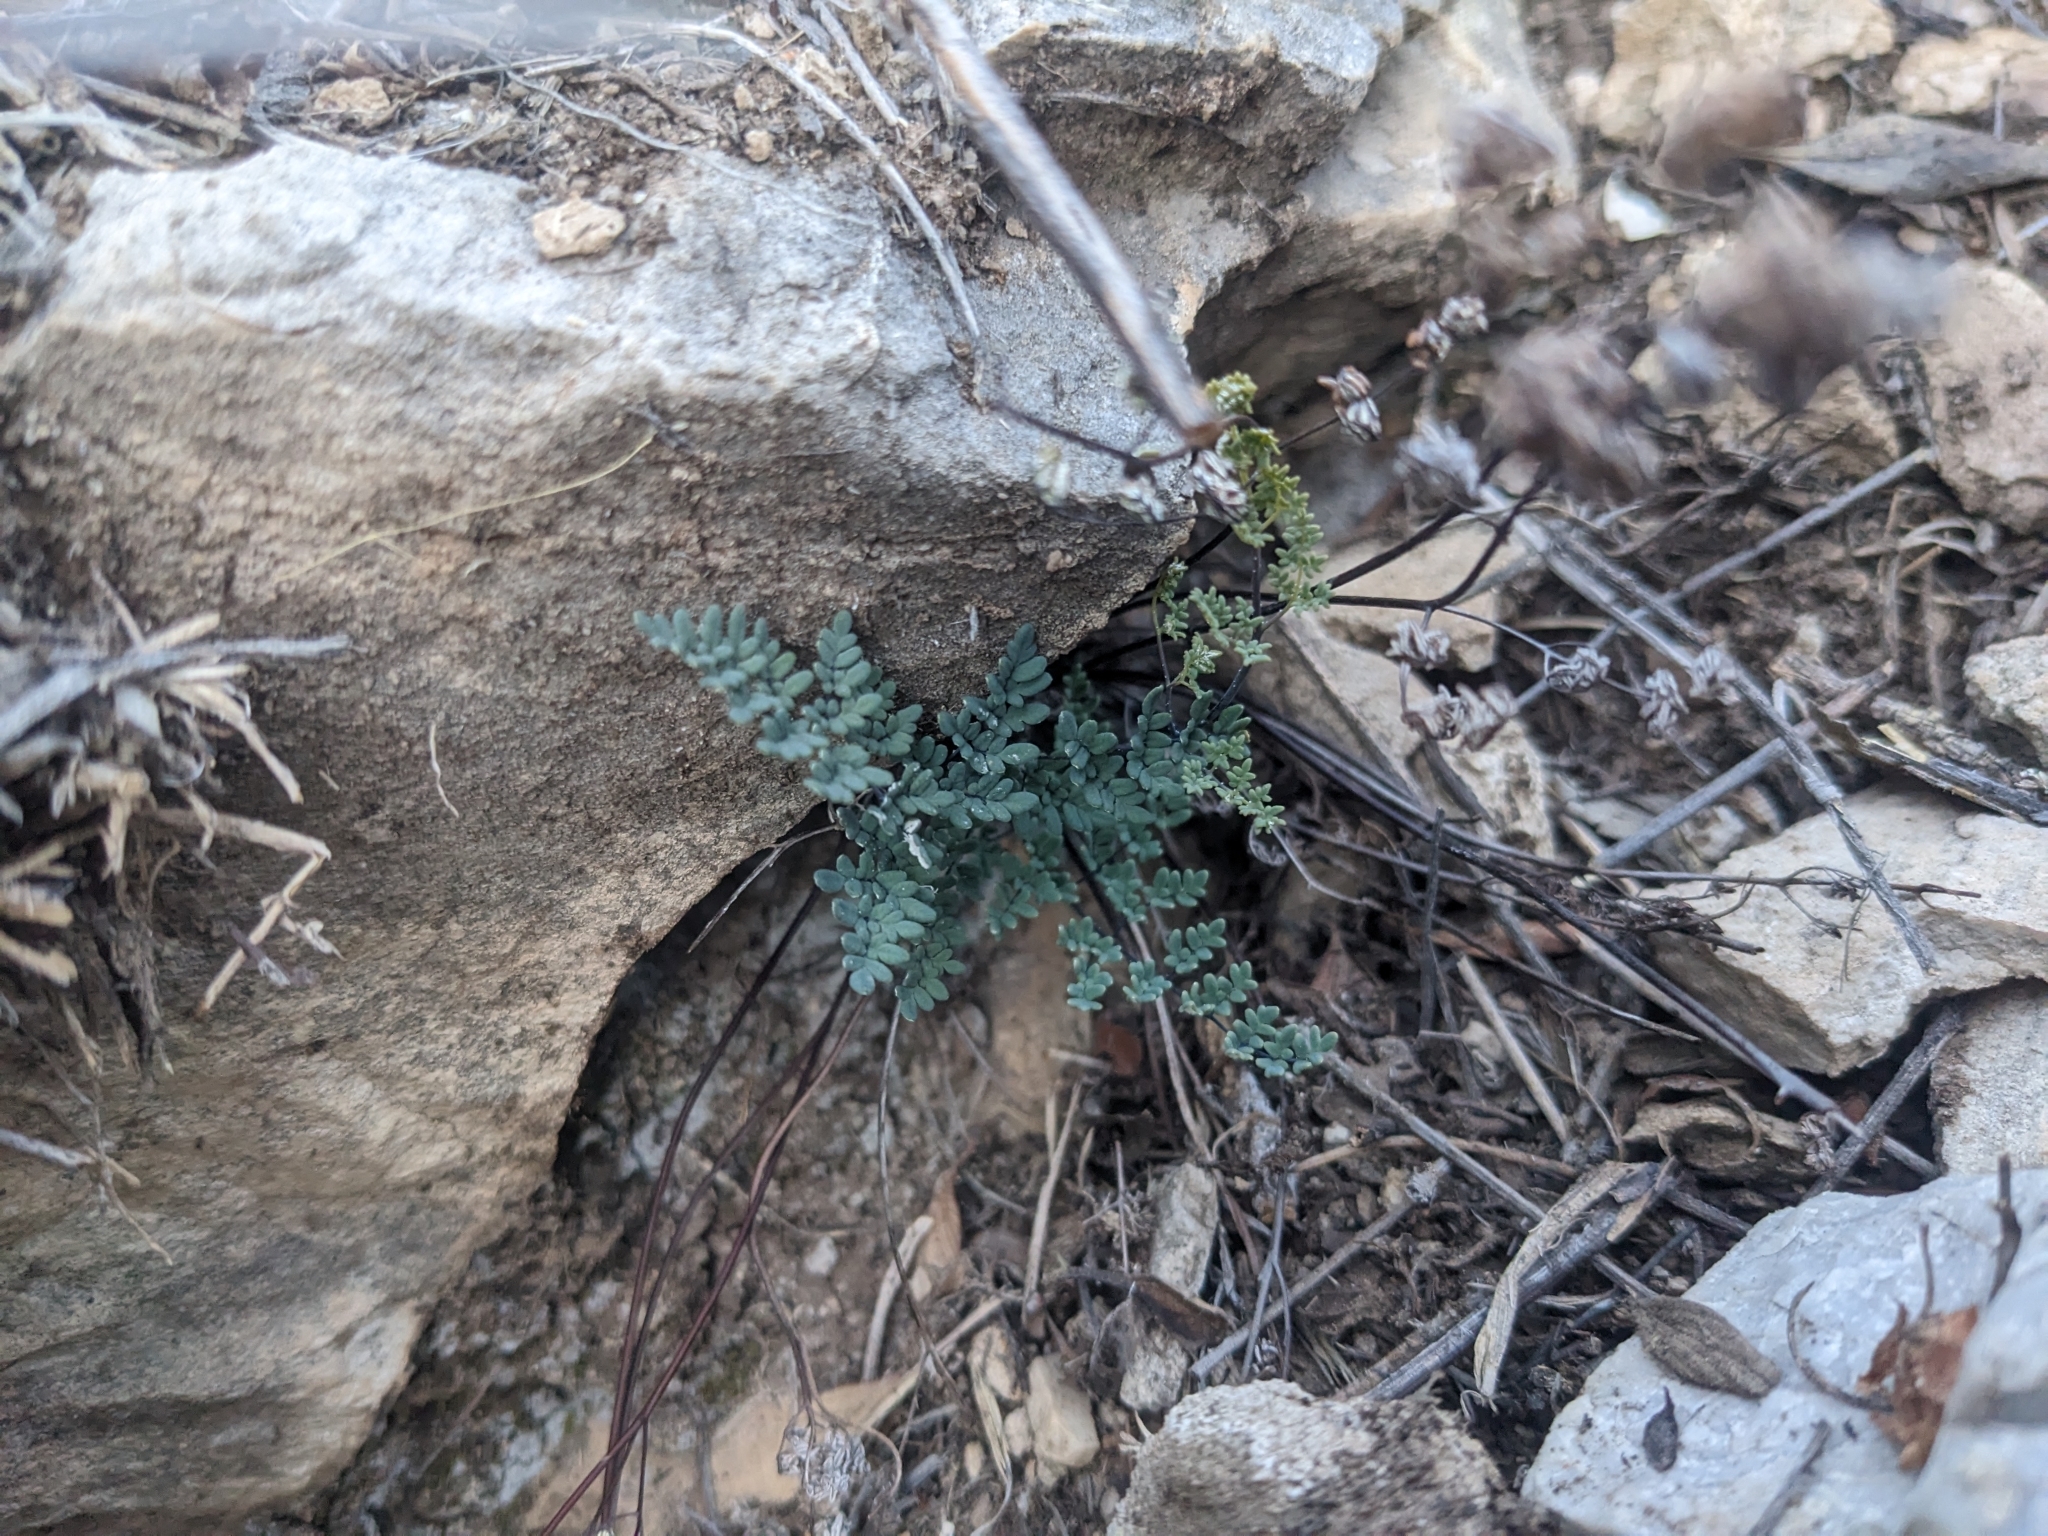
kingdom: Plantae
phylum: Tracheophyta
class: Polypodiopsida
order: Polypodiales
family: Pteridaceae
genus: Argyrochosma
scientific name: Argyrochosma limitanea
